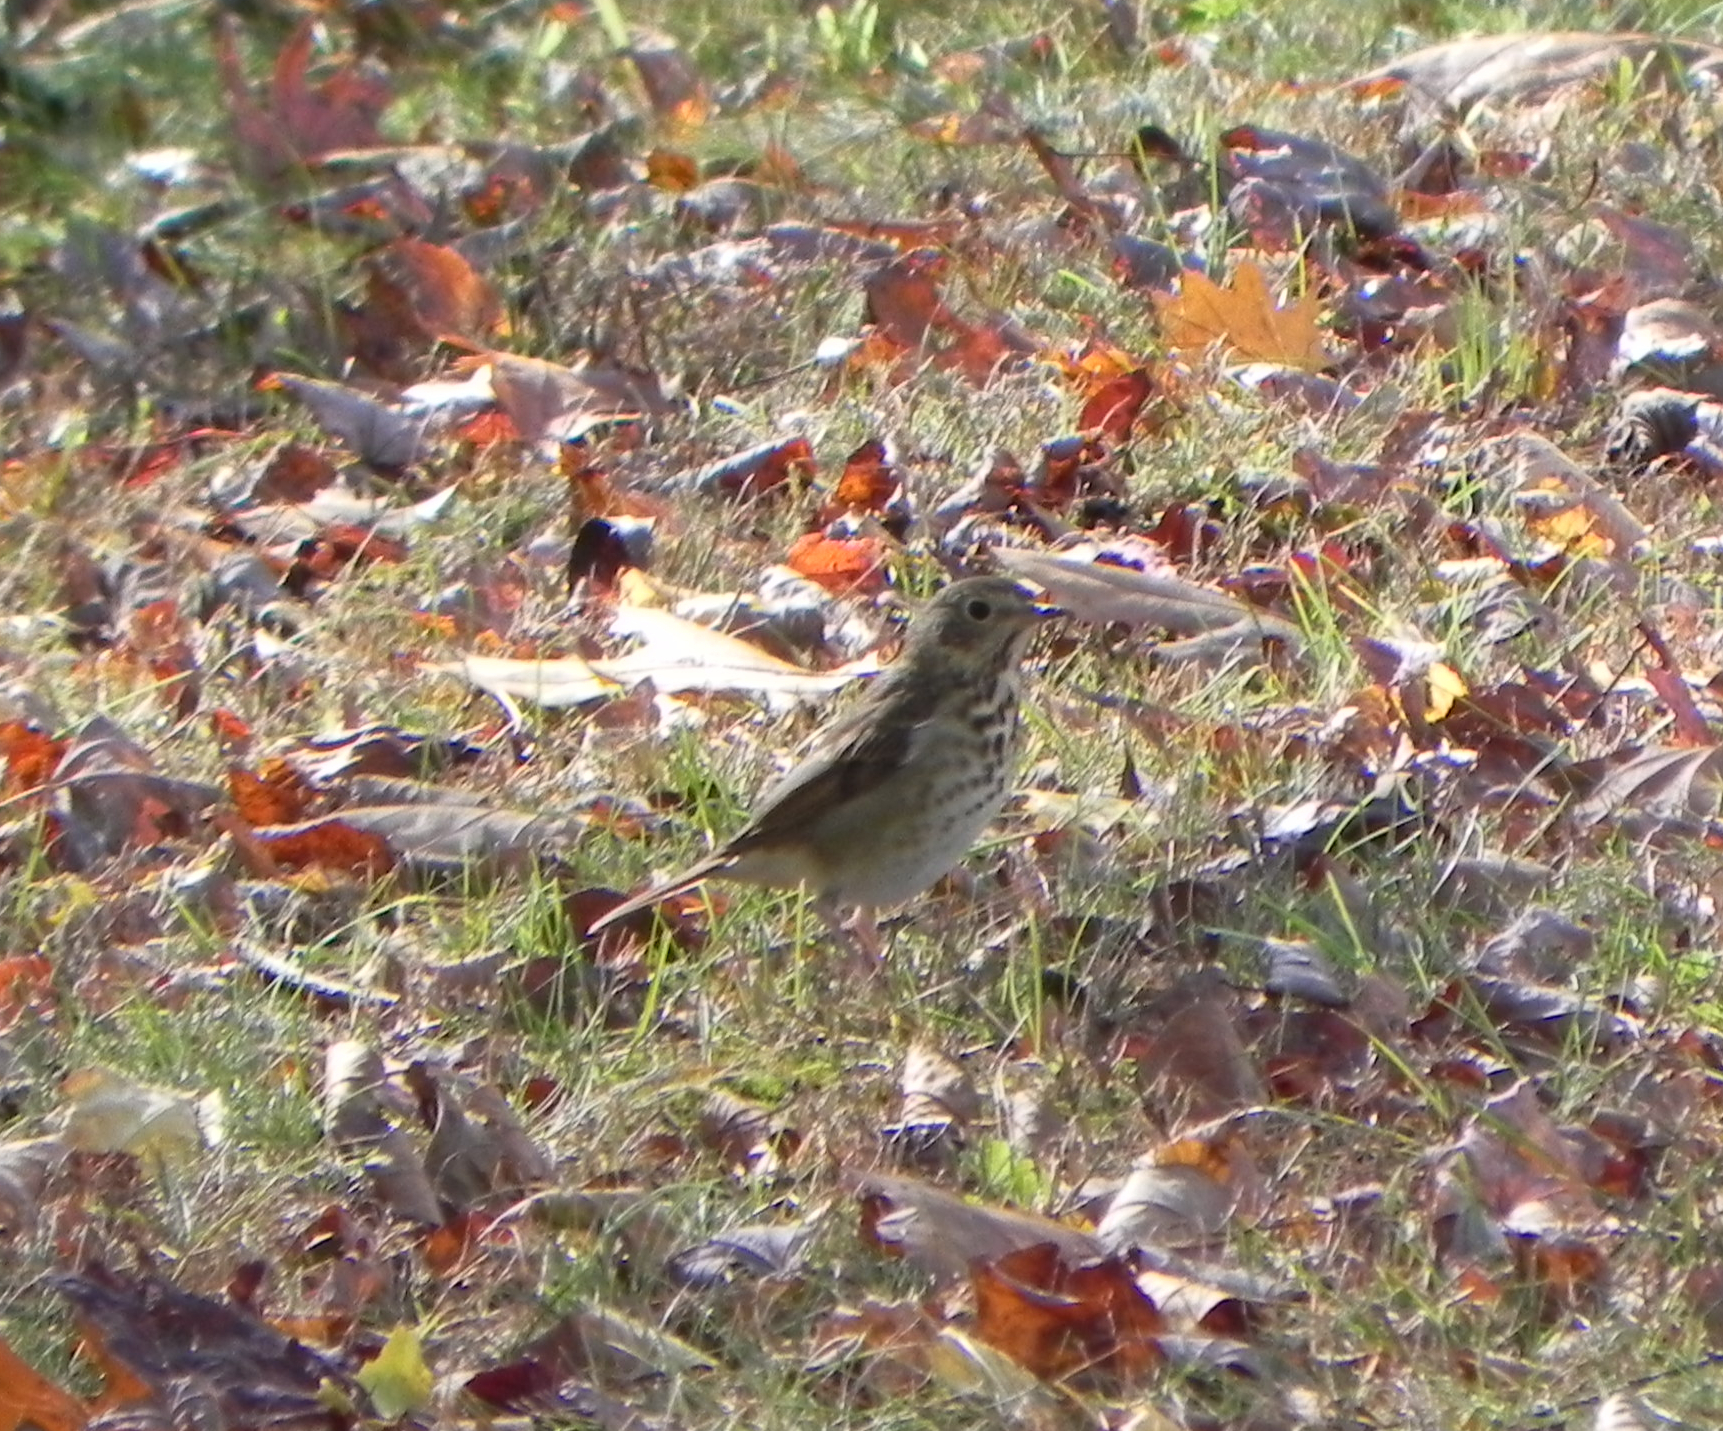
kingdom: Animalia
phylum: Chordata
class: Aves
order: Passeriformes
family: Turdidae
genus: Catharus
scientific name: Catharus guttatus
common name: Hermit thrush
